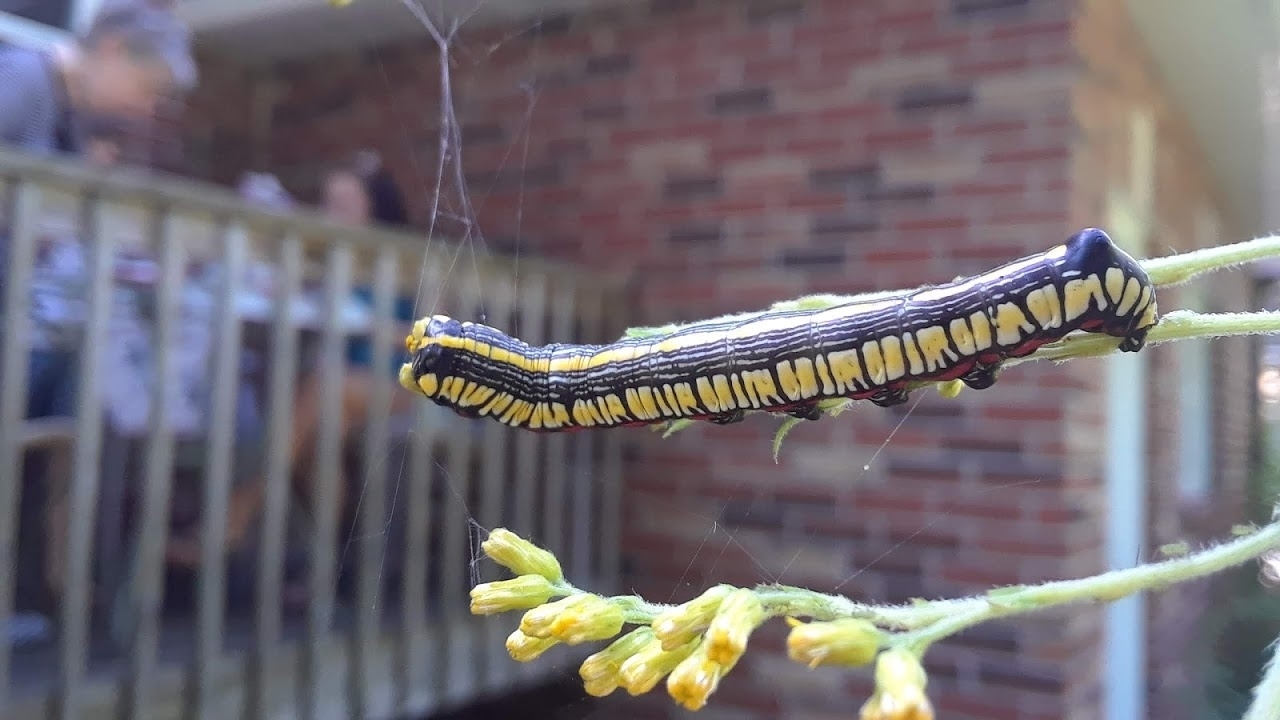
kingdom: Animalia
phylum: Arthropoda
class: Insecta
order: Lepidoptera
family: Noctuidae
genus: Cucullia
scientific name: Cucullia convexipennis
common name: Brown-hooded owlet
